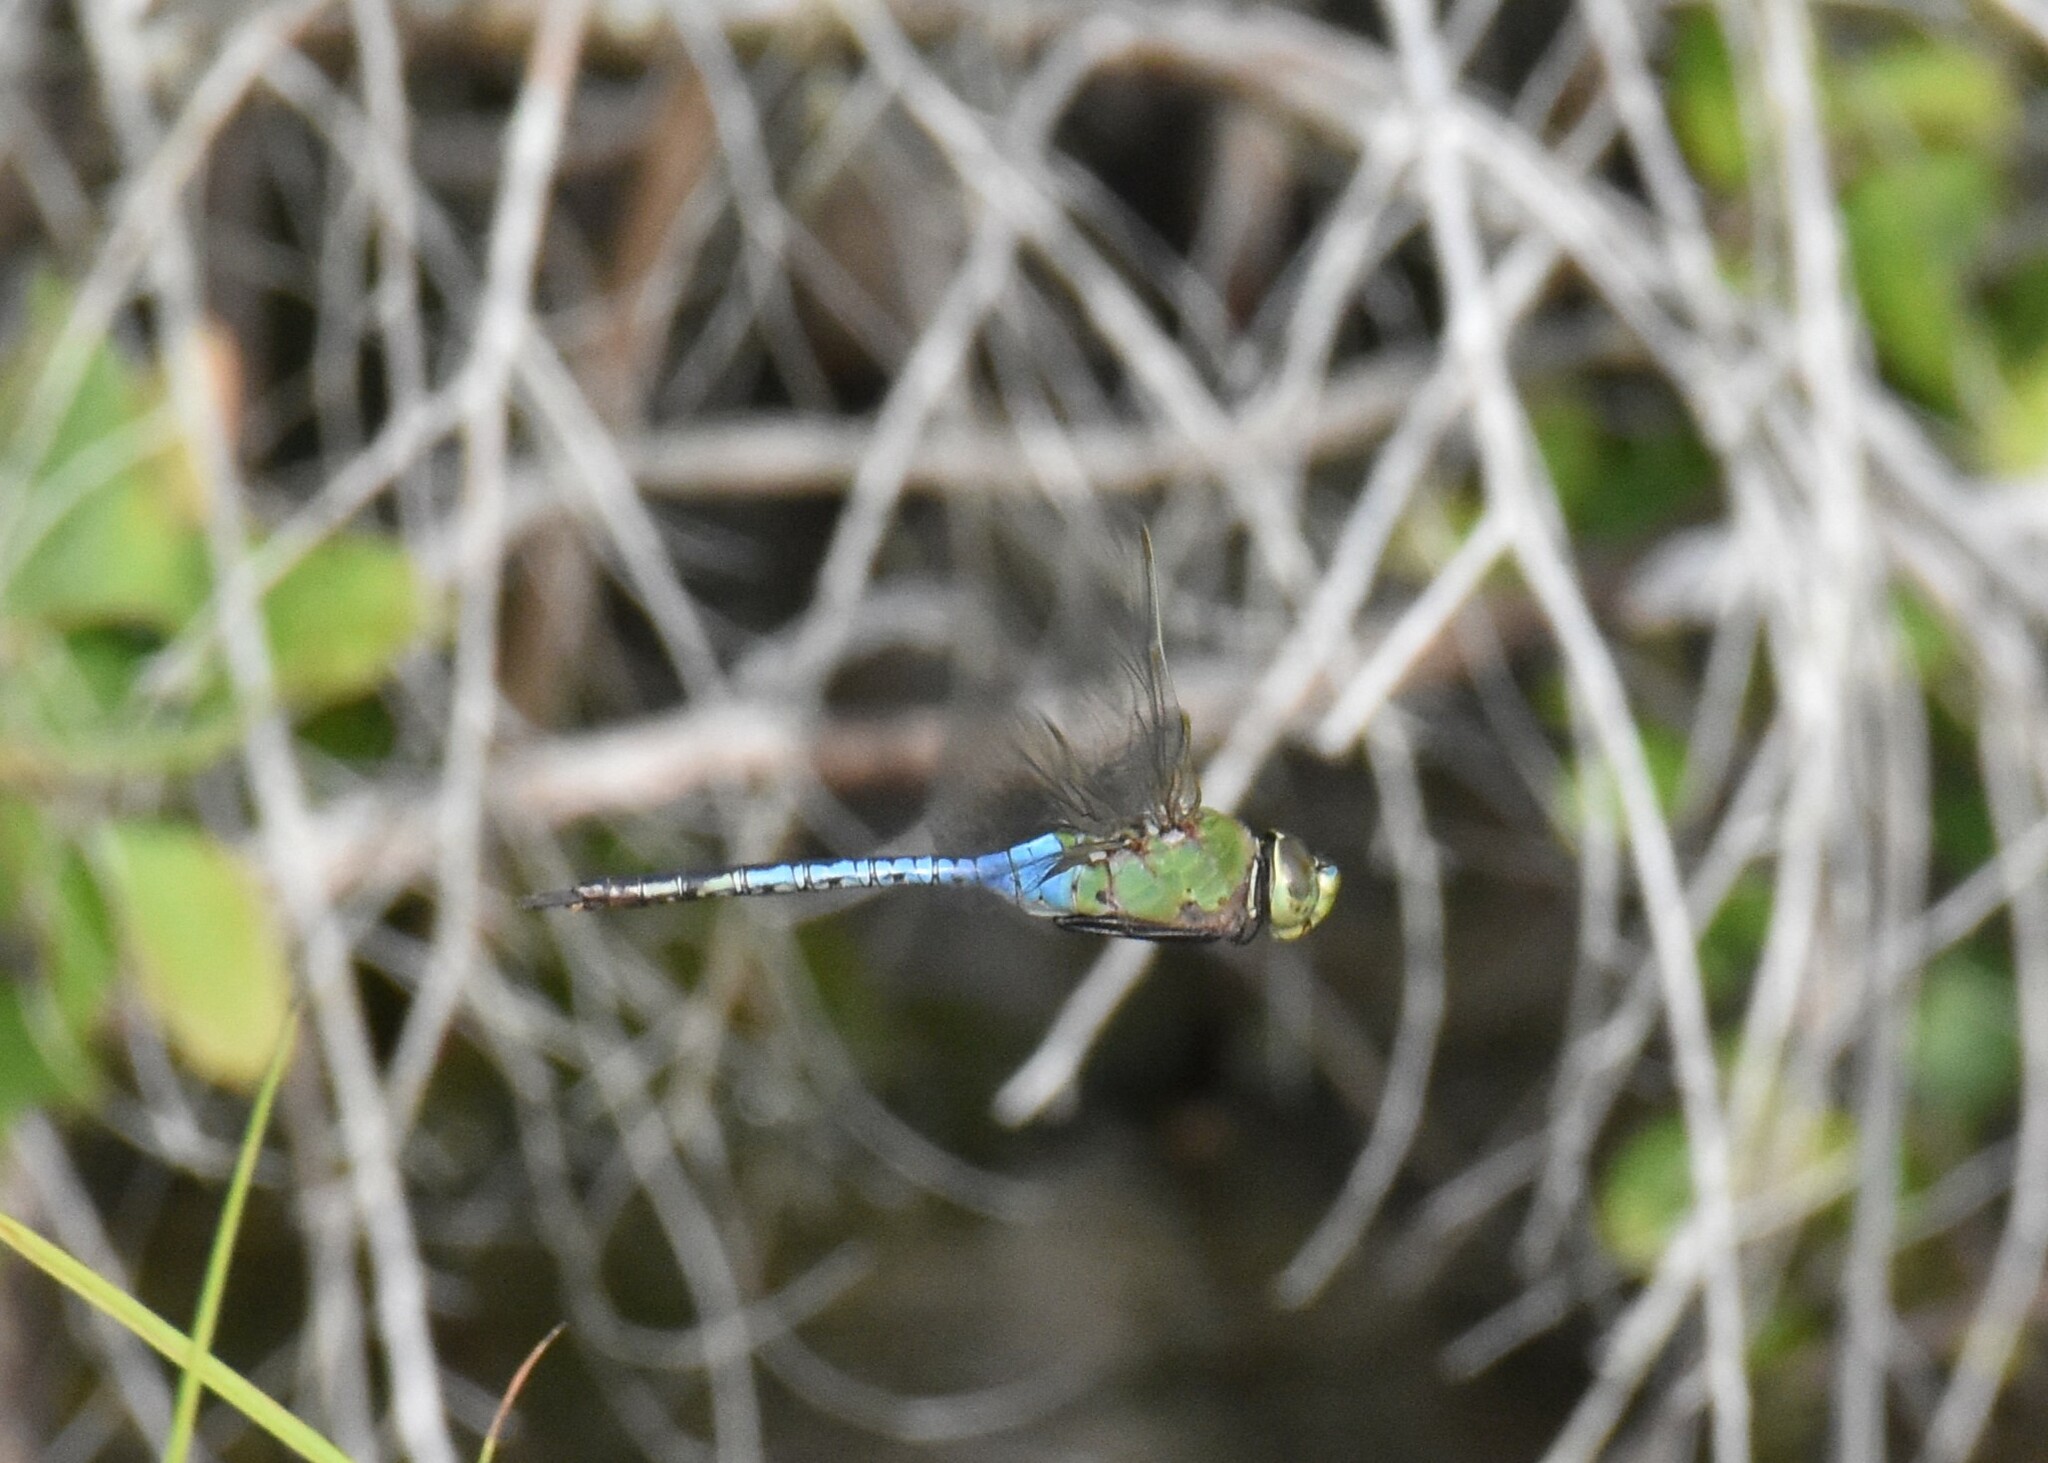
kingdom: Animalia
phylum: Arthropoda
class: Insecta
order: Odonata
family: Aeshnidae
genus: Anax
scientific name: Anax junius
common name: Common green darner
